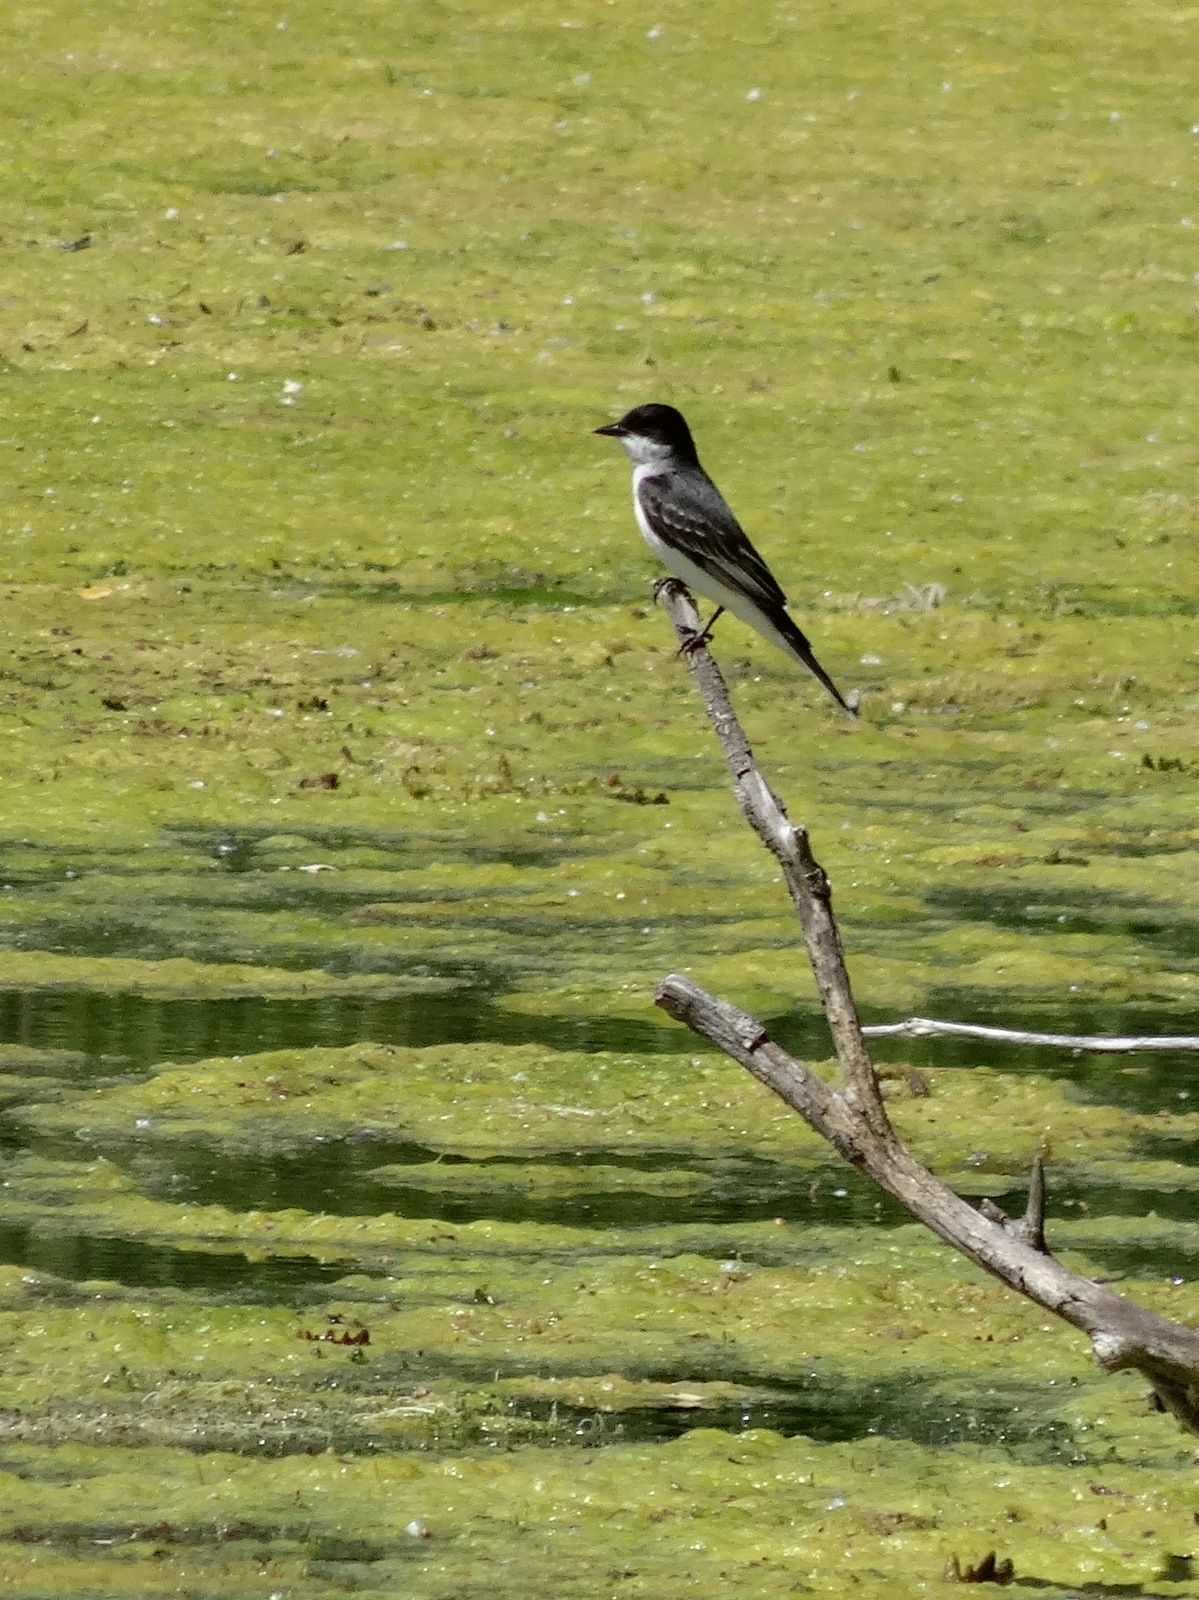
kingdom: Animalia
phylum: Chordata
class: Aves
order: Passeriformes
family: Tyrannidae
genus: Tyrannus
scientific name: Tyrannus tyrannus
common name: Eastern kingbird
